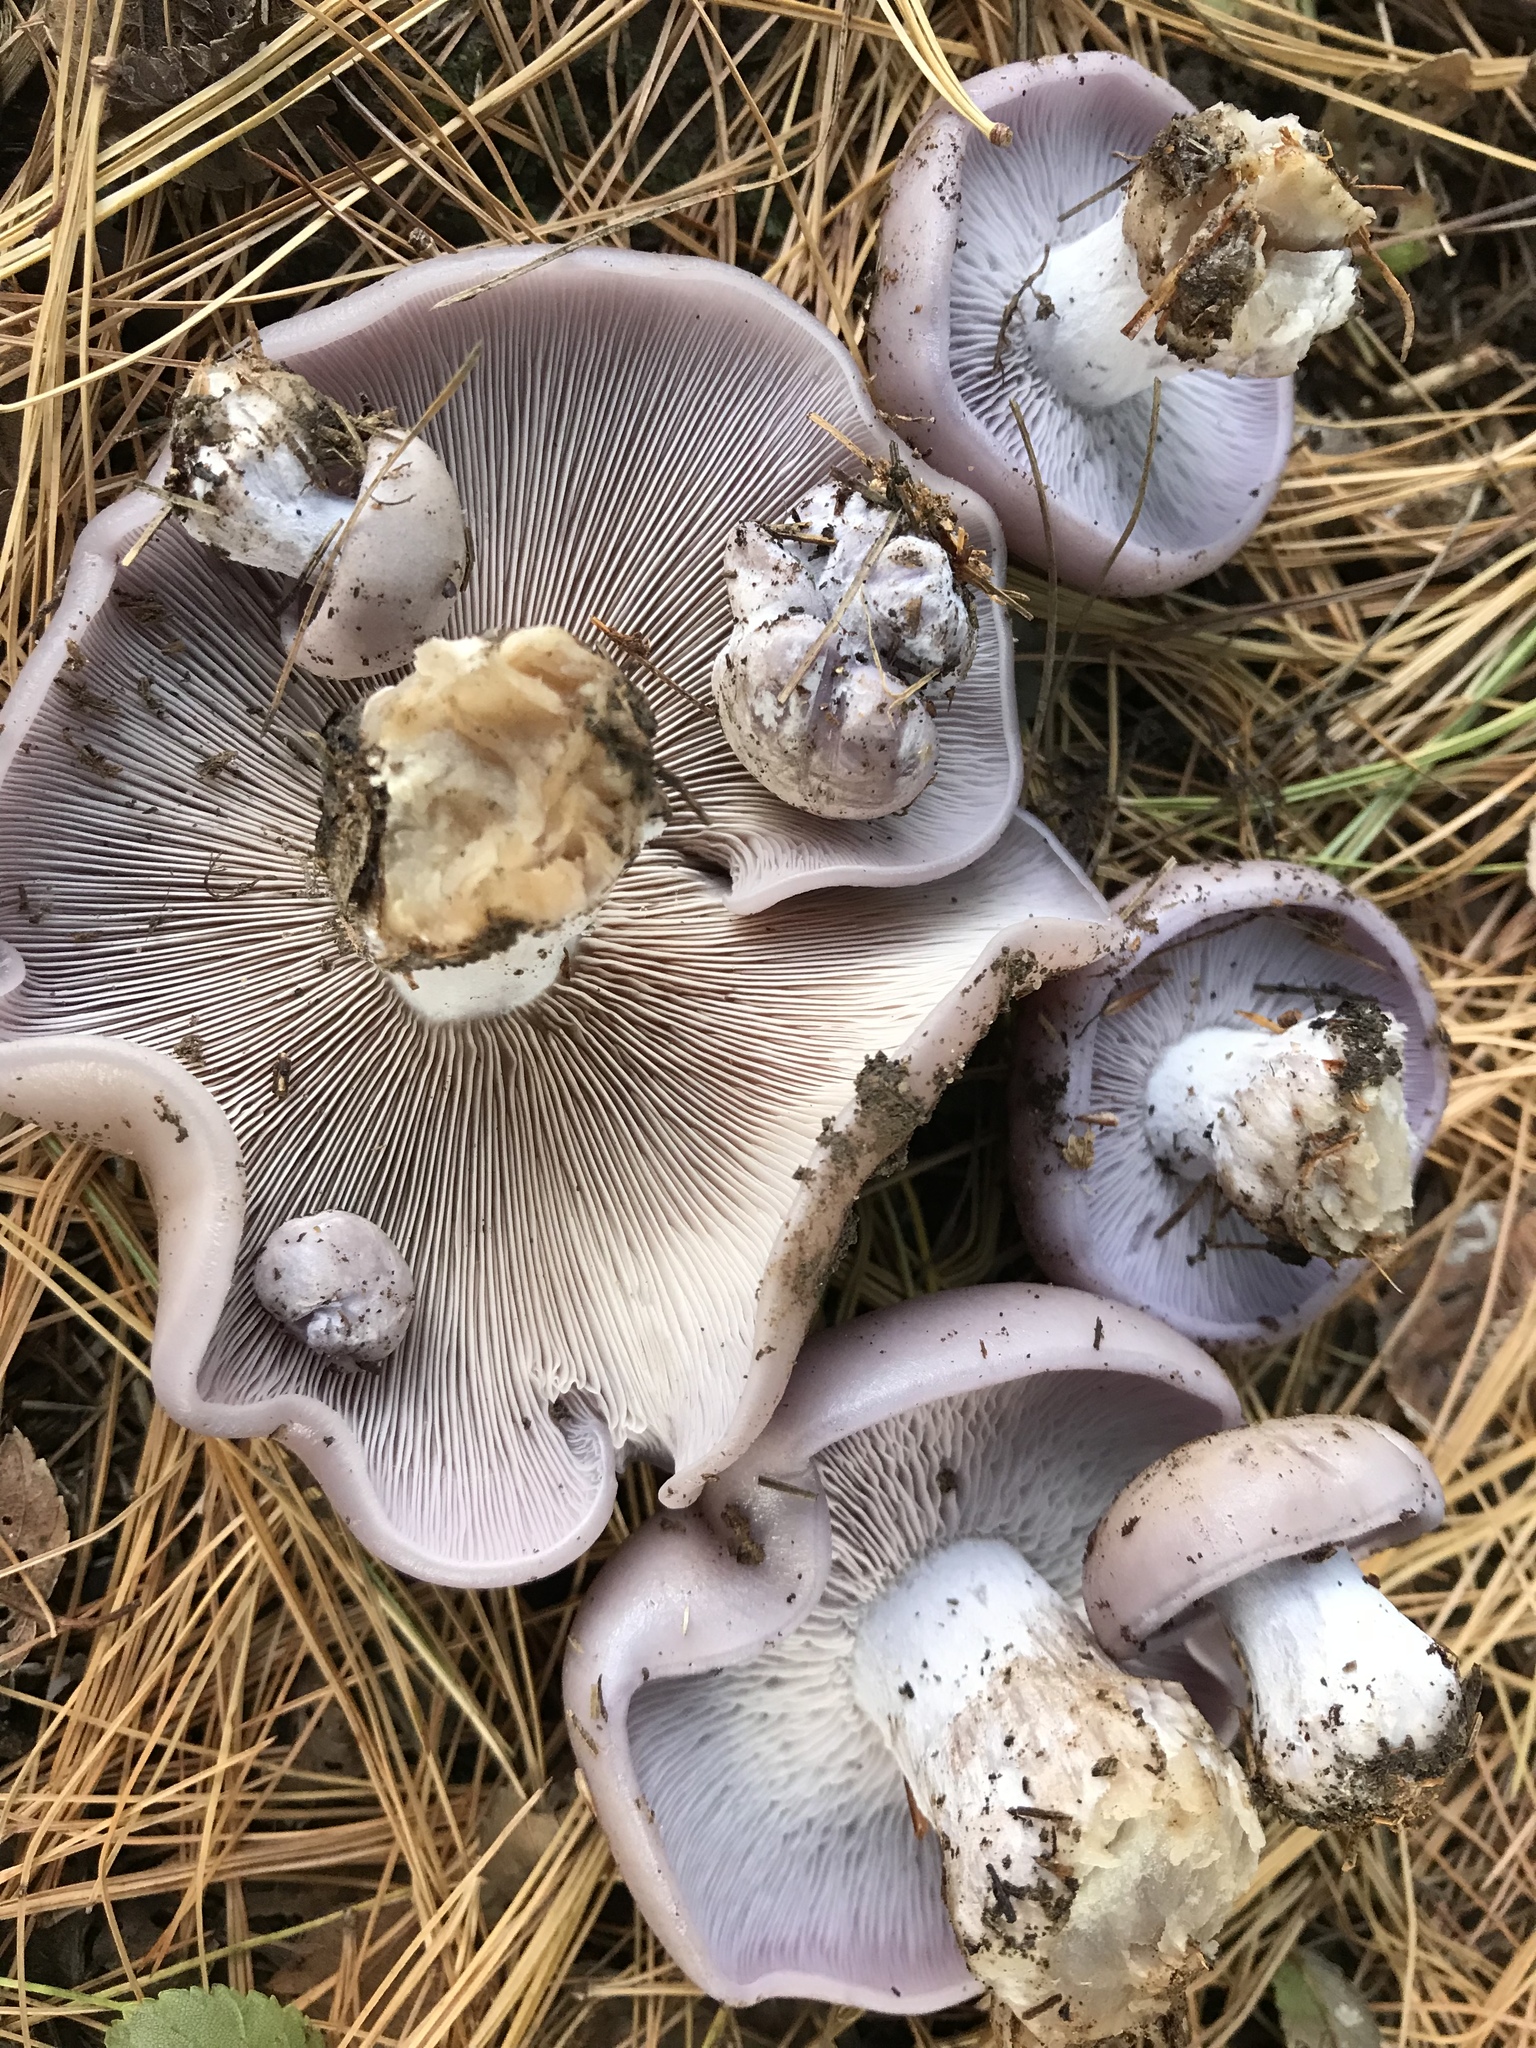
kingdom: Fungi
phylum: Basidiomycota
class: Agaricomycetes
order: Agaricales
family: Tricholomataceae
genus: Collybia
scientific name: Collybia
